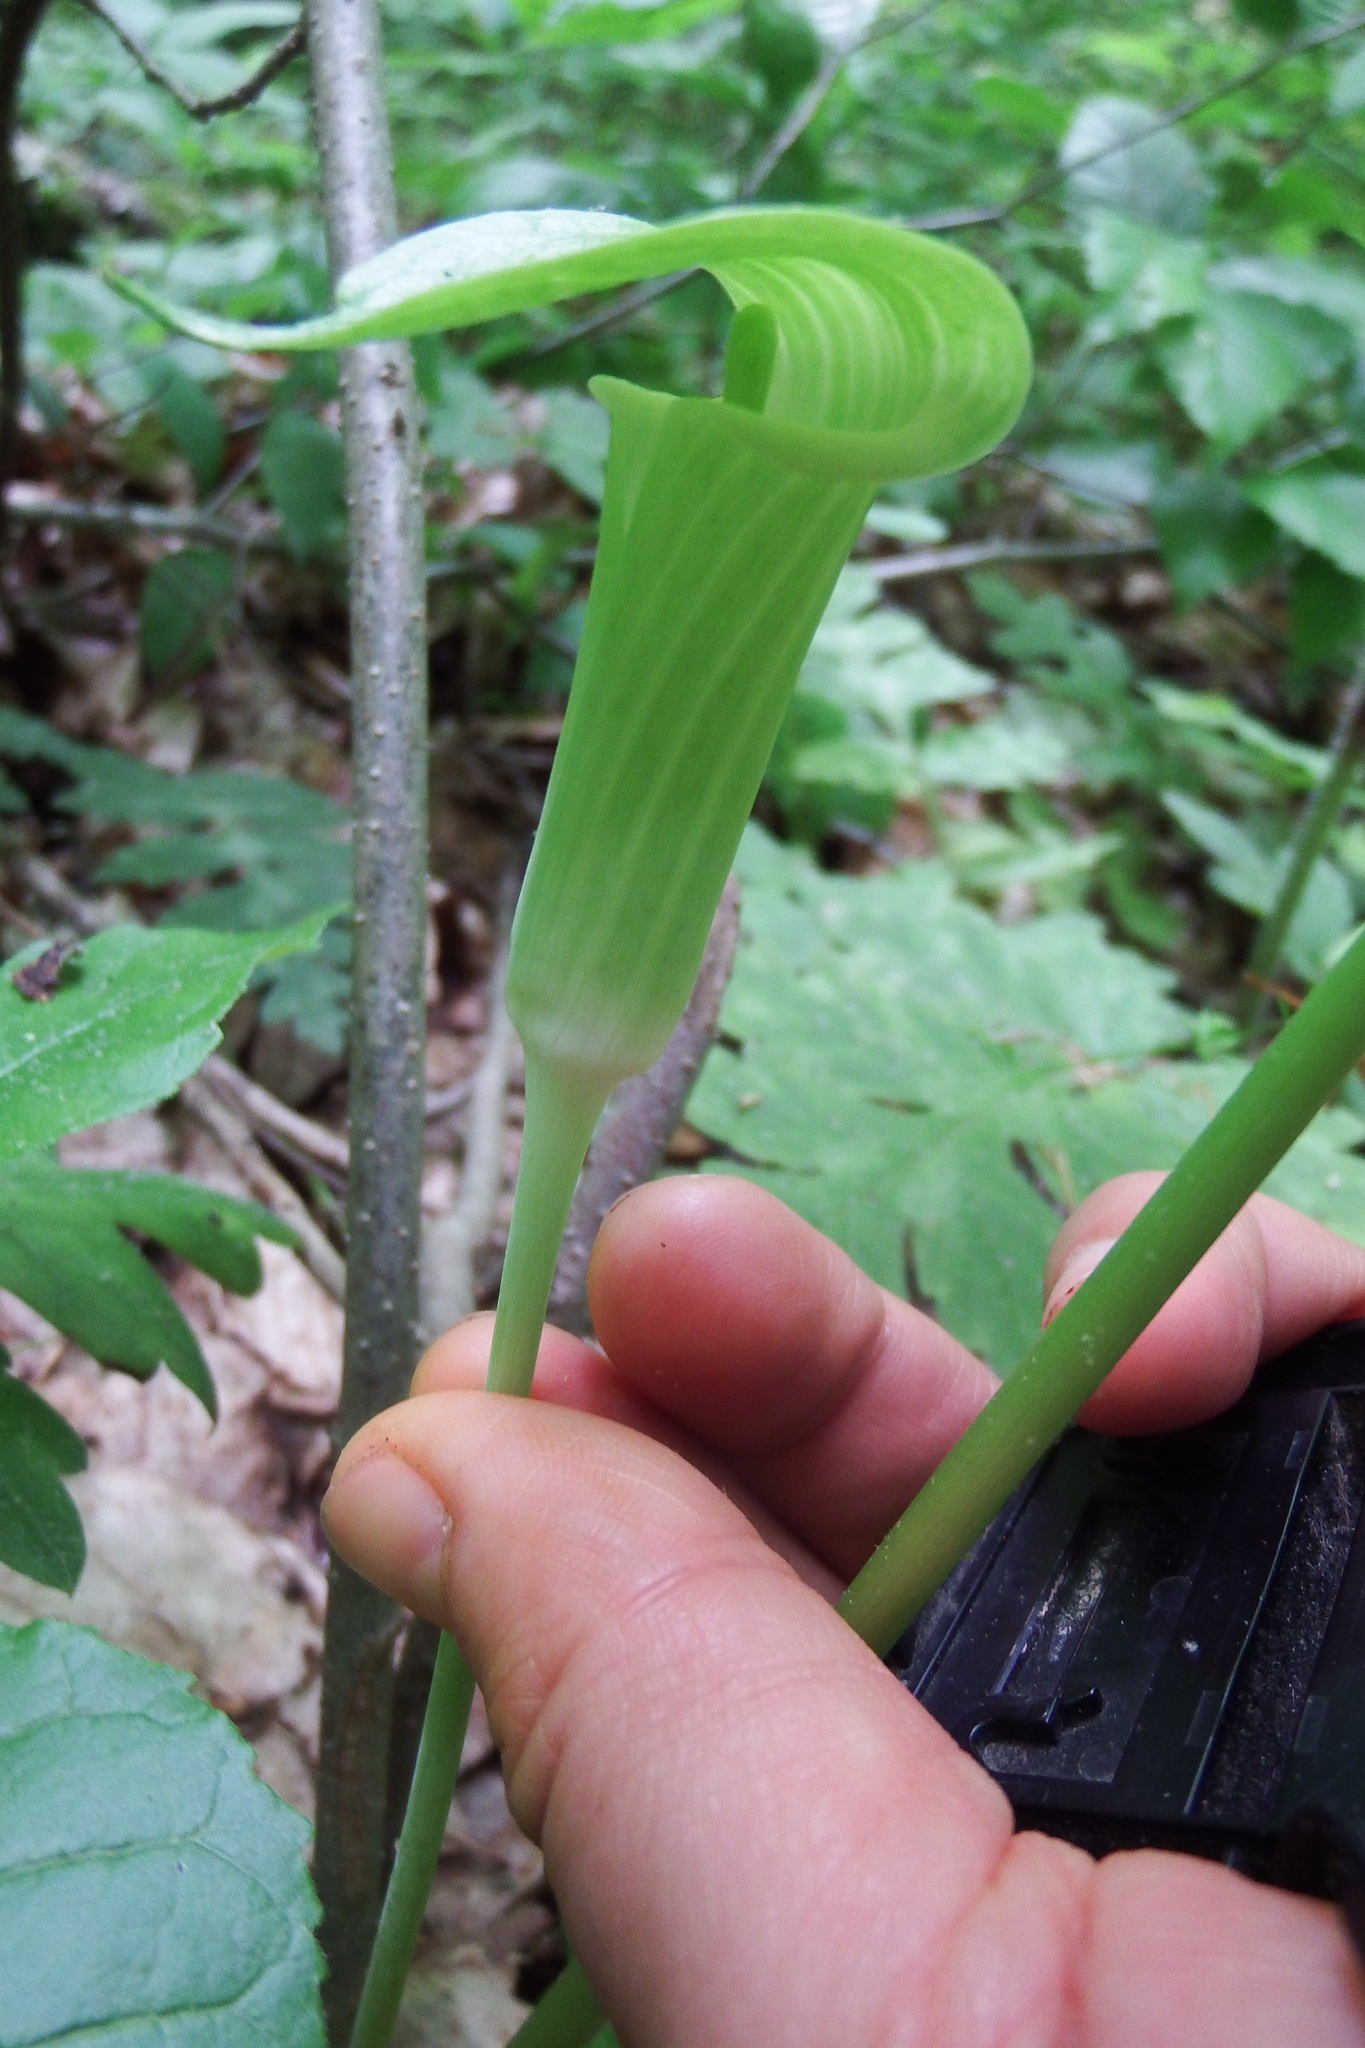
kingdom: Plantae
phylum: Tracheophyta
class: Liliopsida
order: Alismatales
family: Araceae
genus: Arisaema
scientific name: Arisaema triphyllum
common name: Jack-in-the-pulpit
